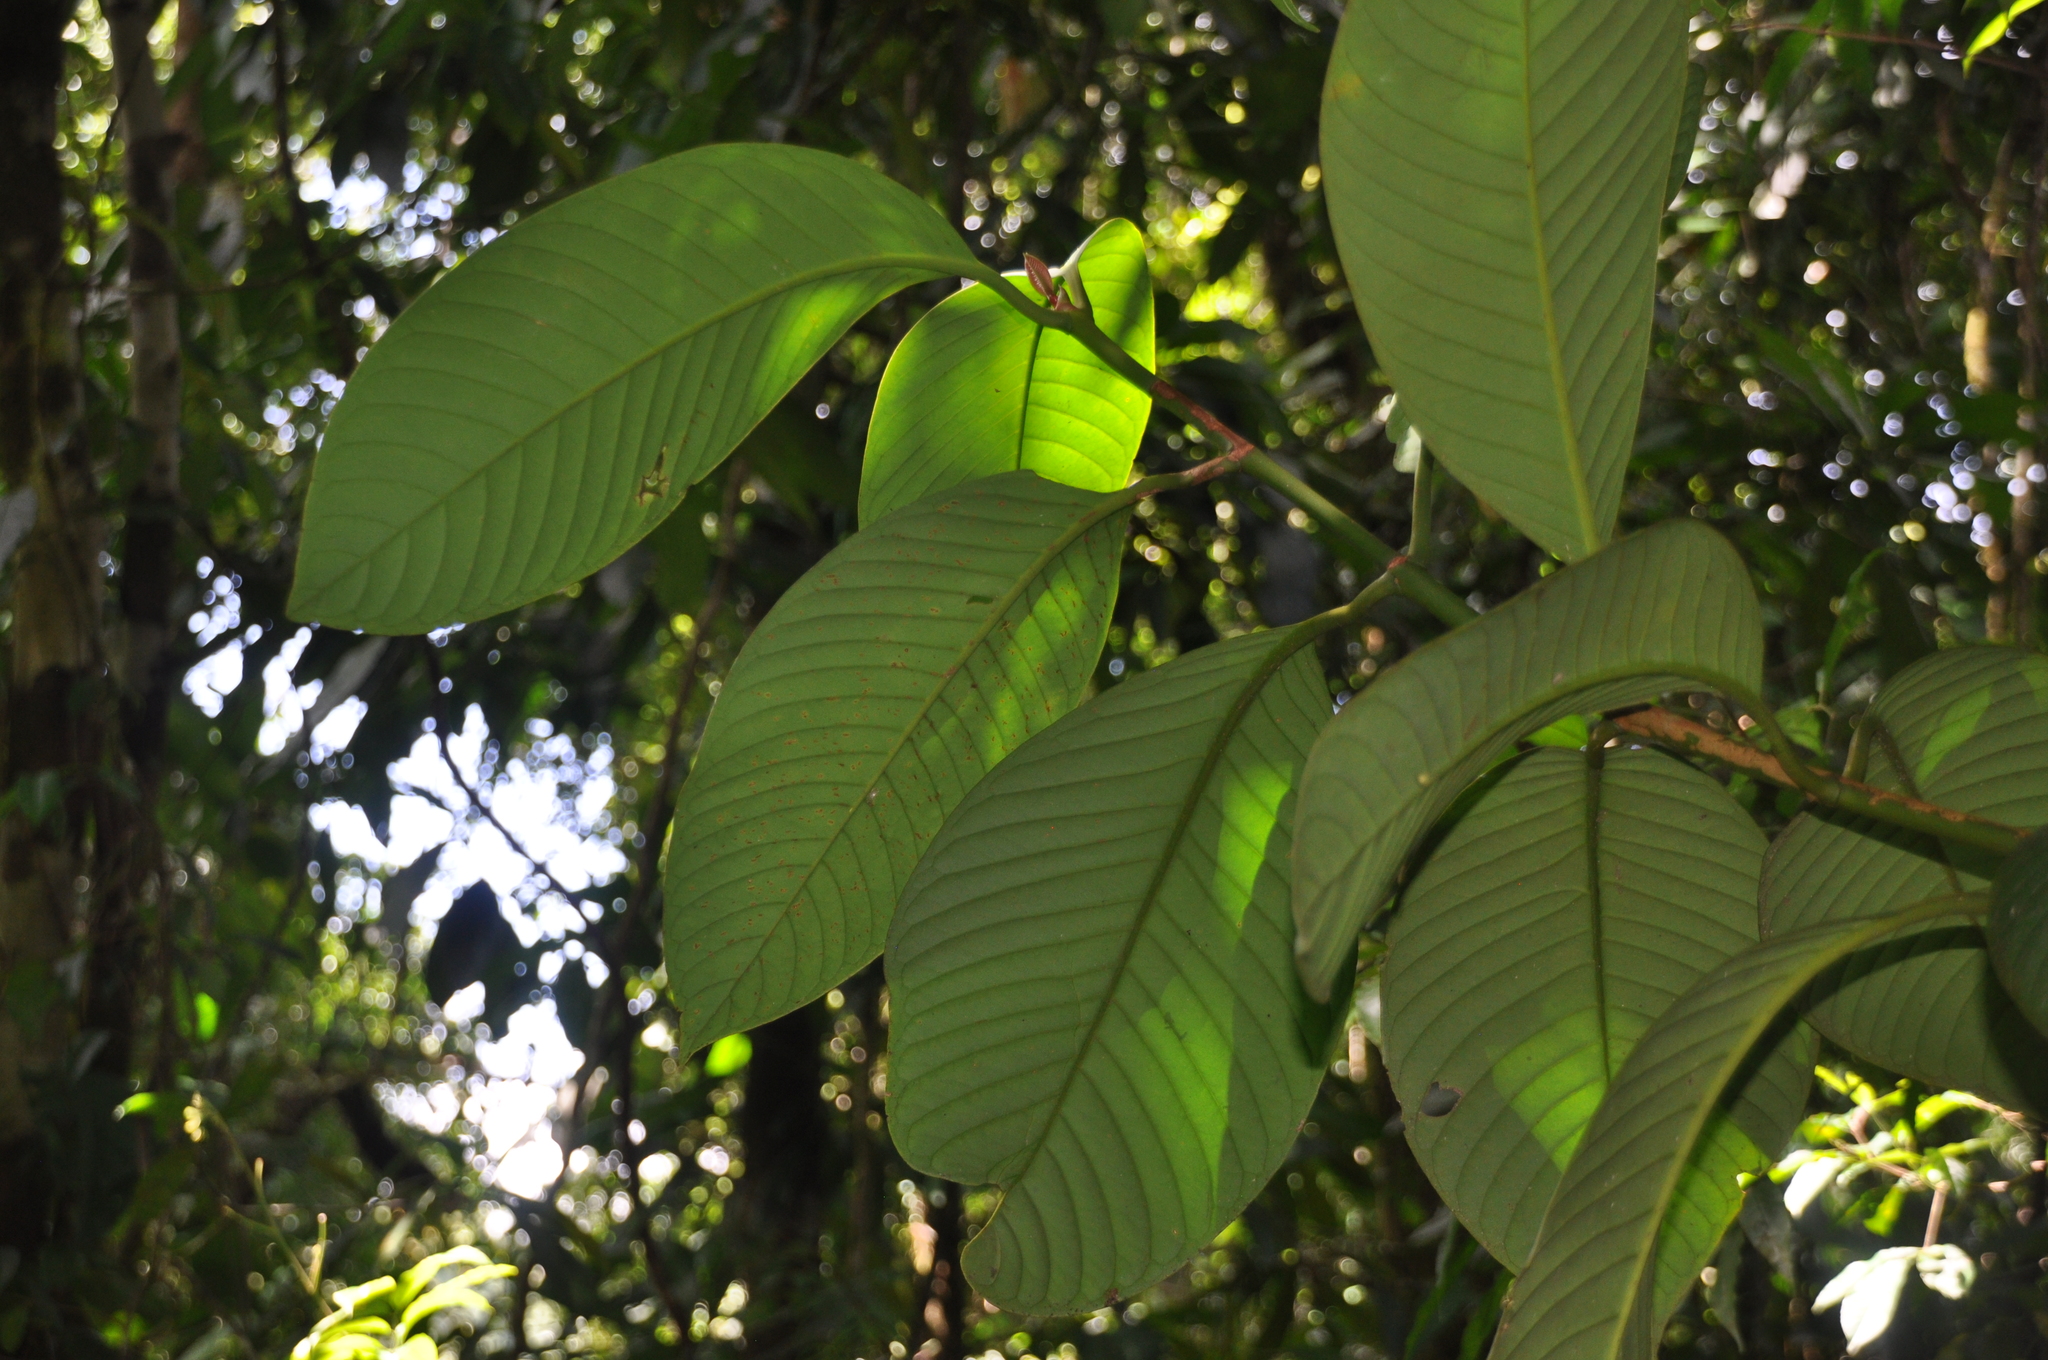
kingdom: Plantae
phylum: Tracheophyta
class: Magnoliopsida
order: Malpighiales
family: Clusiaceae
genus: Chrysochlamys
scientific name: Chrysochlamys myrcioides
